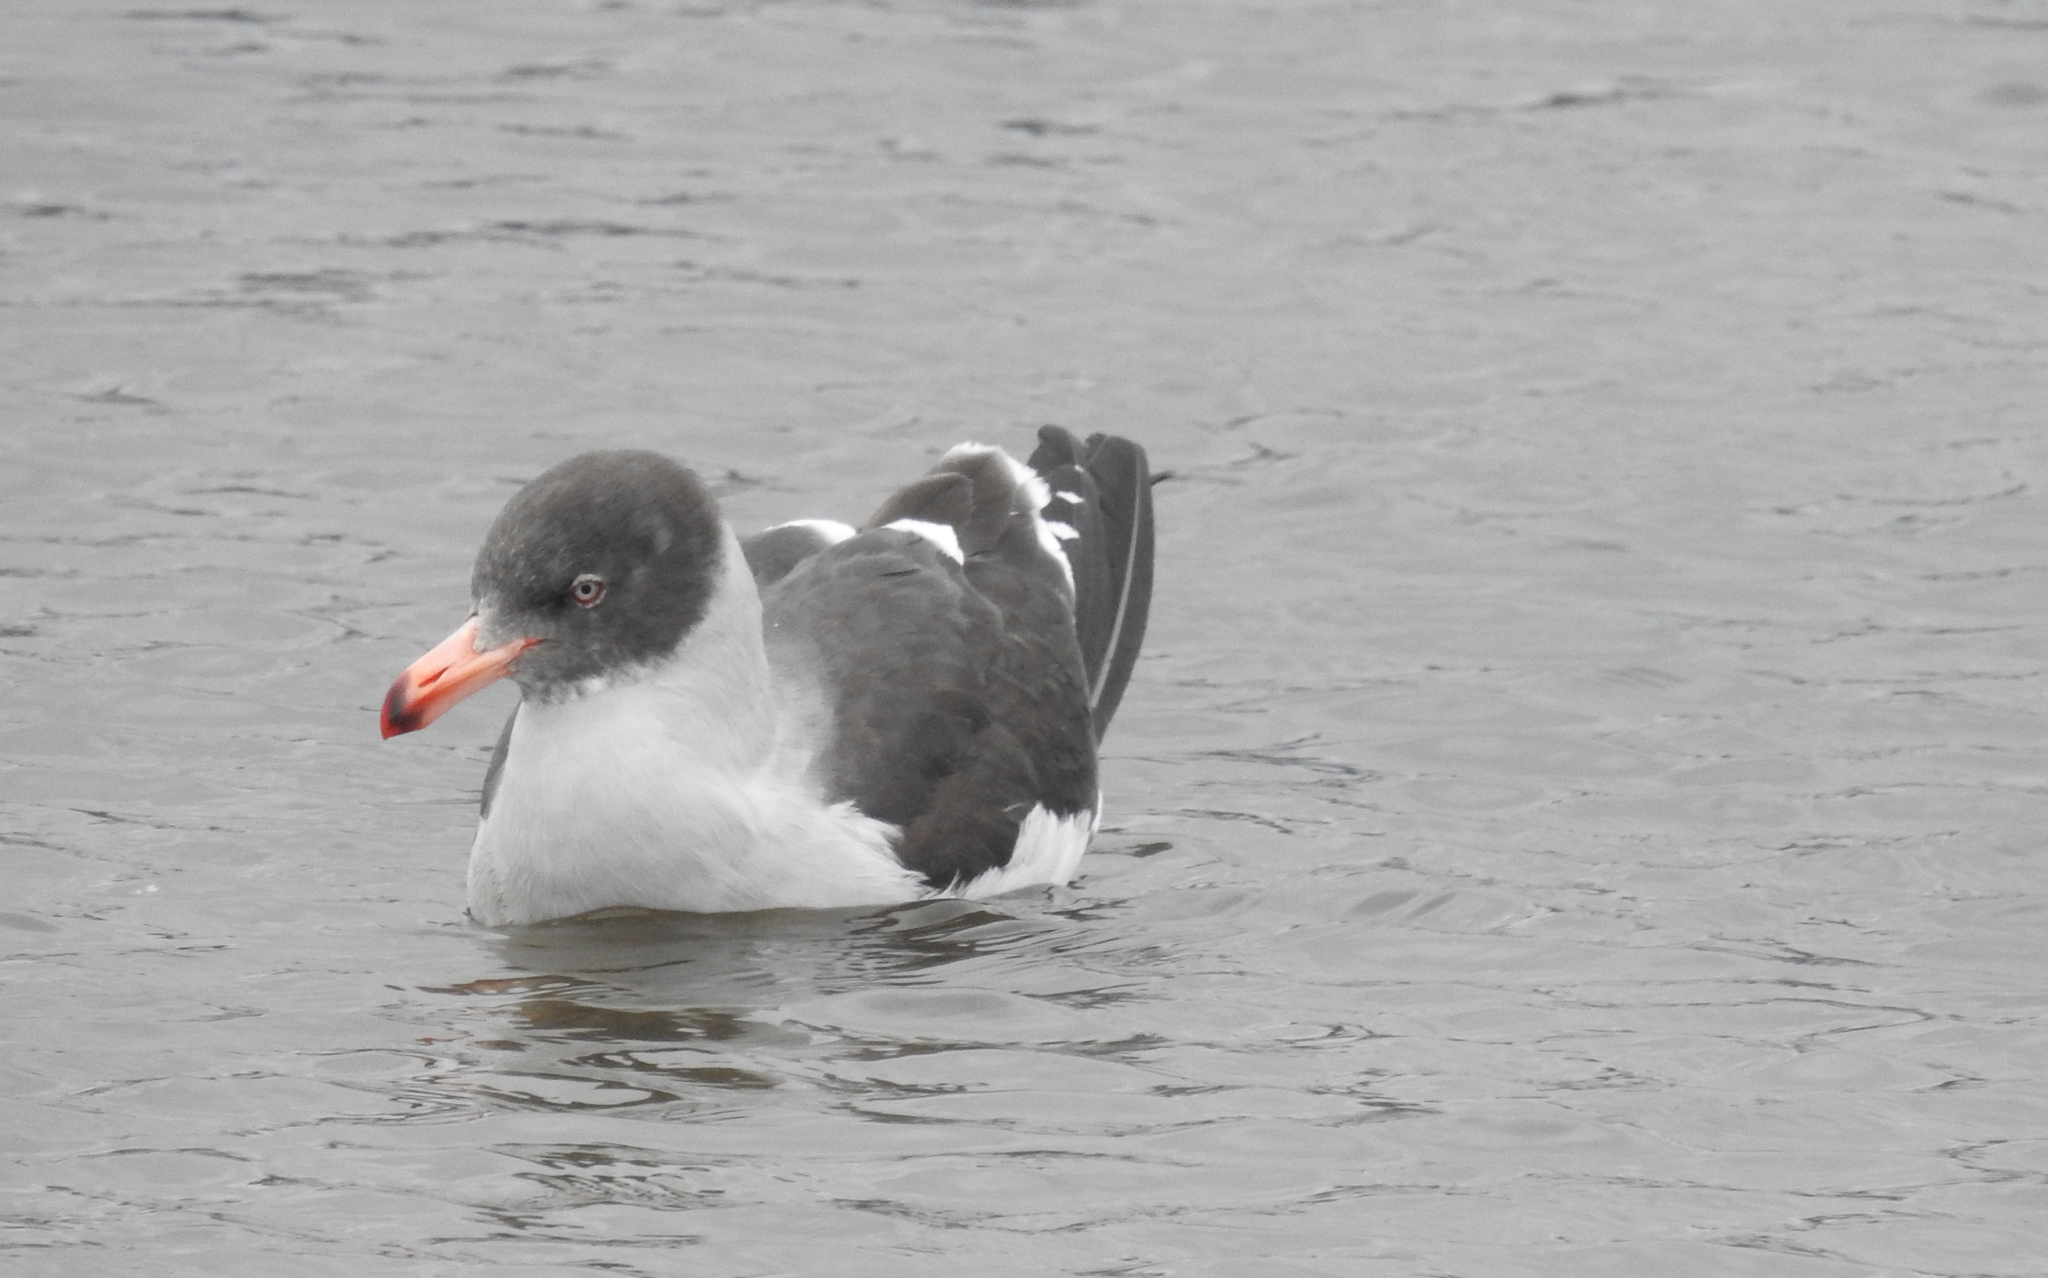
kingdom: Animalia
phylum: Chordata
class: Aves
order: Charadriiformes
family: Laridae
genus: Leucophaeus
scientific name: Leucophaeus scoresbii
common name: Dolphin gull
